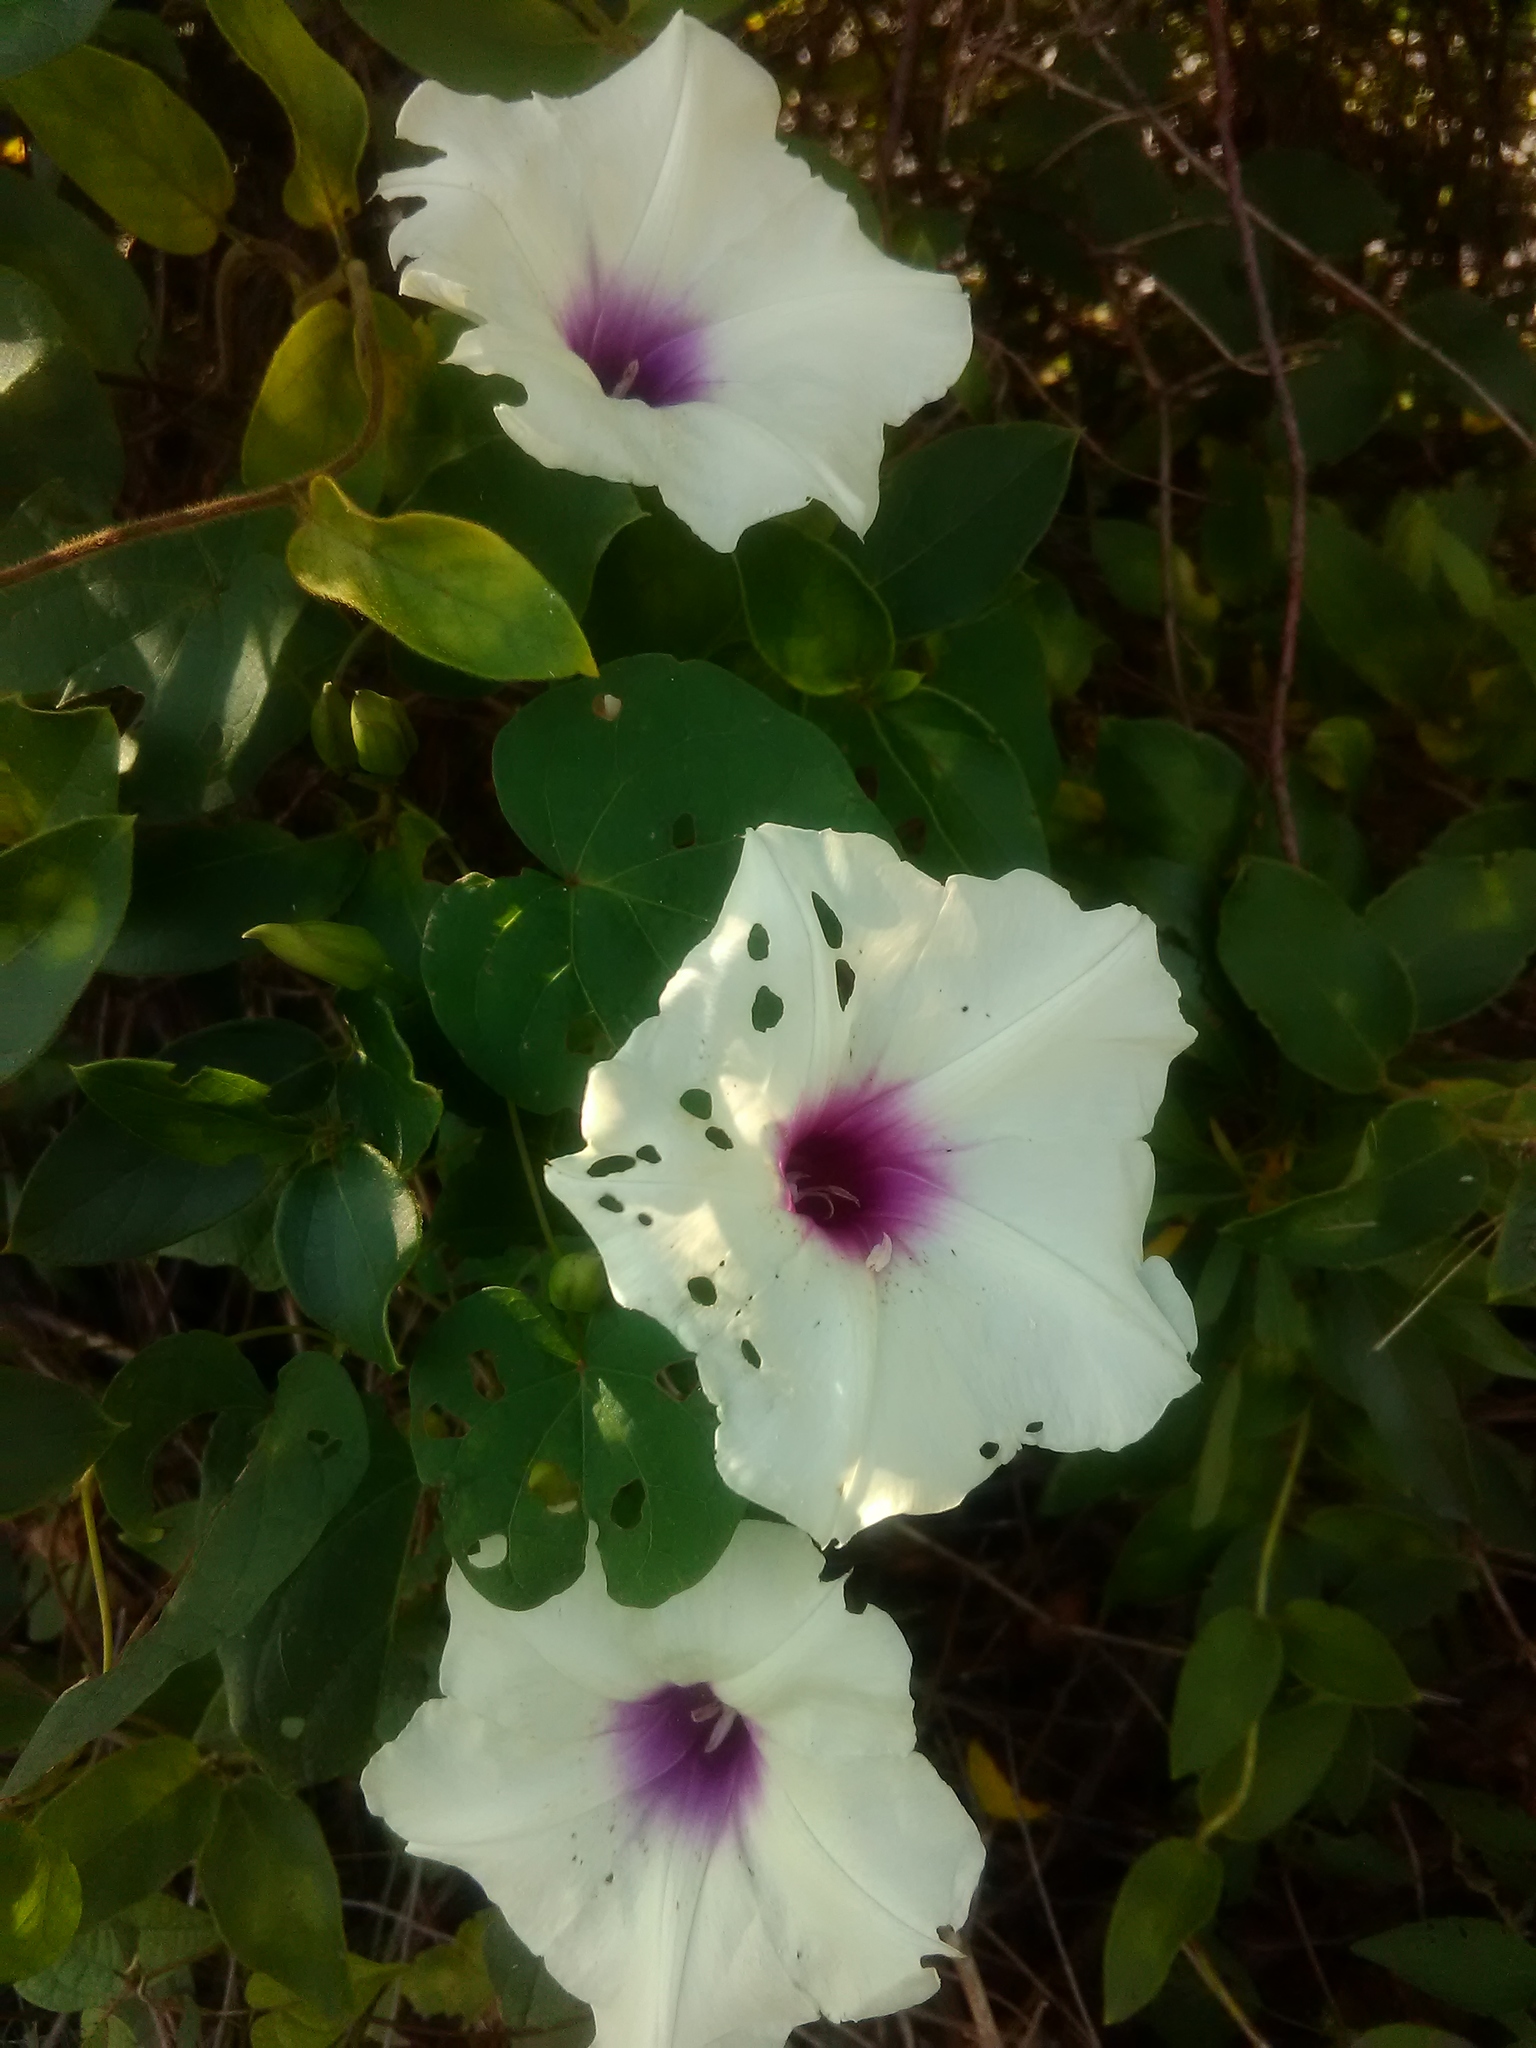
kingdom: Plantae
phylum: Tracheophyta
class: Magnoliopsida
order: Solanales
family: Convolvulaceae
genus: Ipomoea
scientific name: Ipomoea pandurata
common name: Man-of-the-earth
